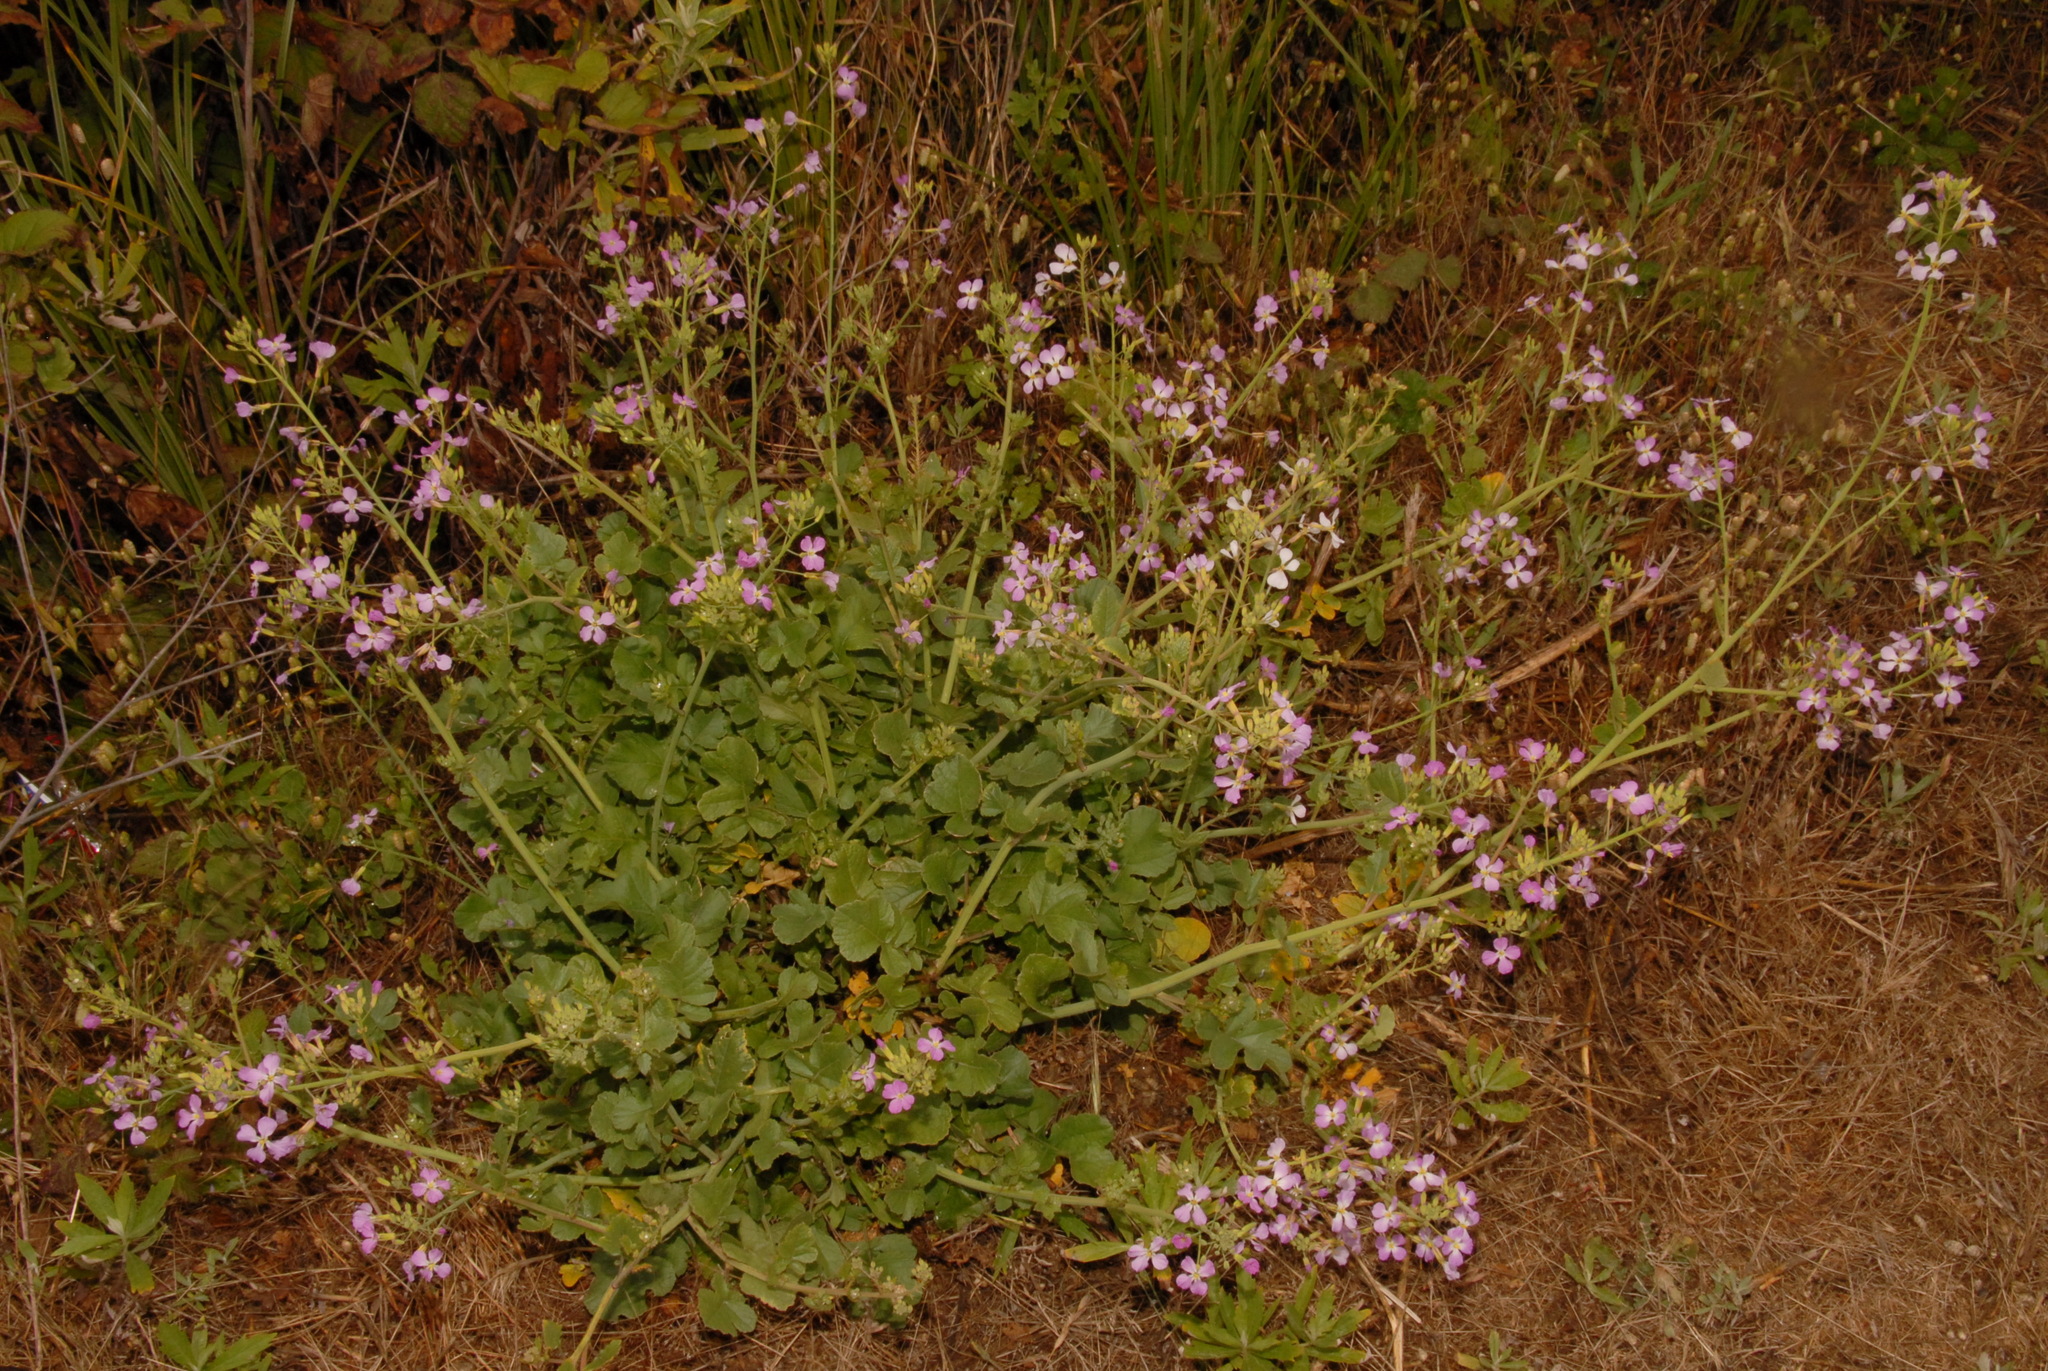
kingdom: Plantae
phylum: Tracheophyta
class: Magnoliopsida
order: Brassicales
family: Brassicaceae
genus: Raphanus
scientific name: Raphanus sativus
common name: Cultivated radish
